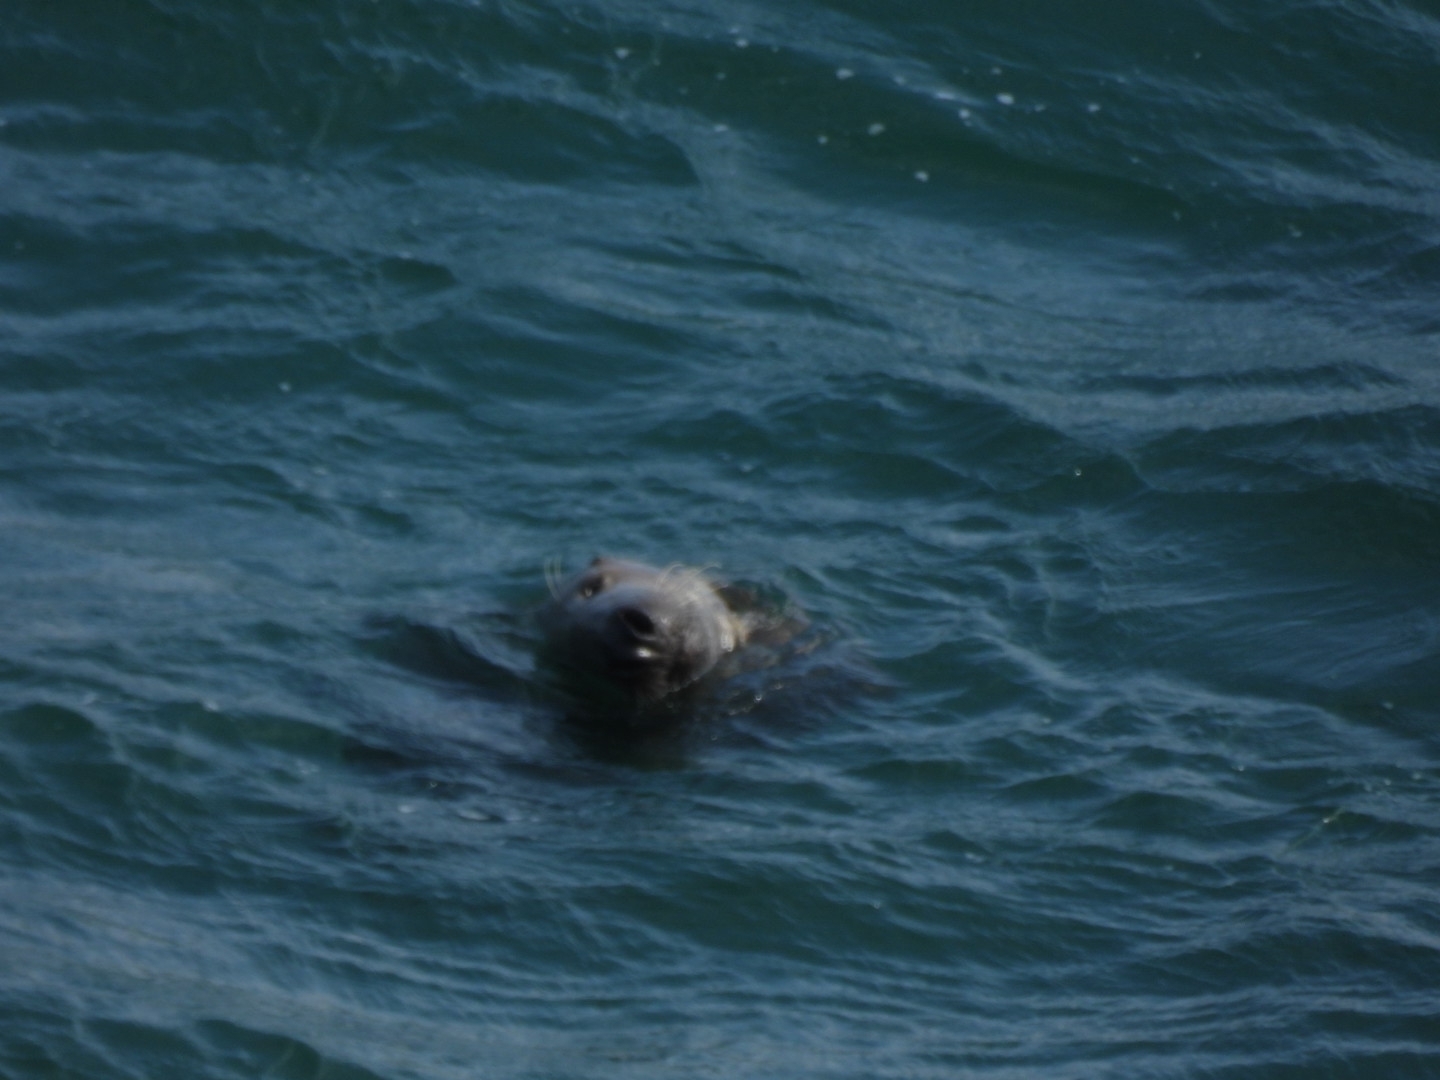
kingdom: Animalia
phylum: Chordata
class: Mammalia
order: Carnivora
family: Phocidae
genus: Halichoerus
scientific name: Halichoerus grypus
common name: Grey seal
